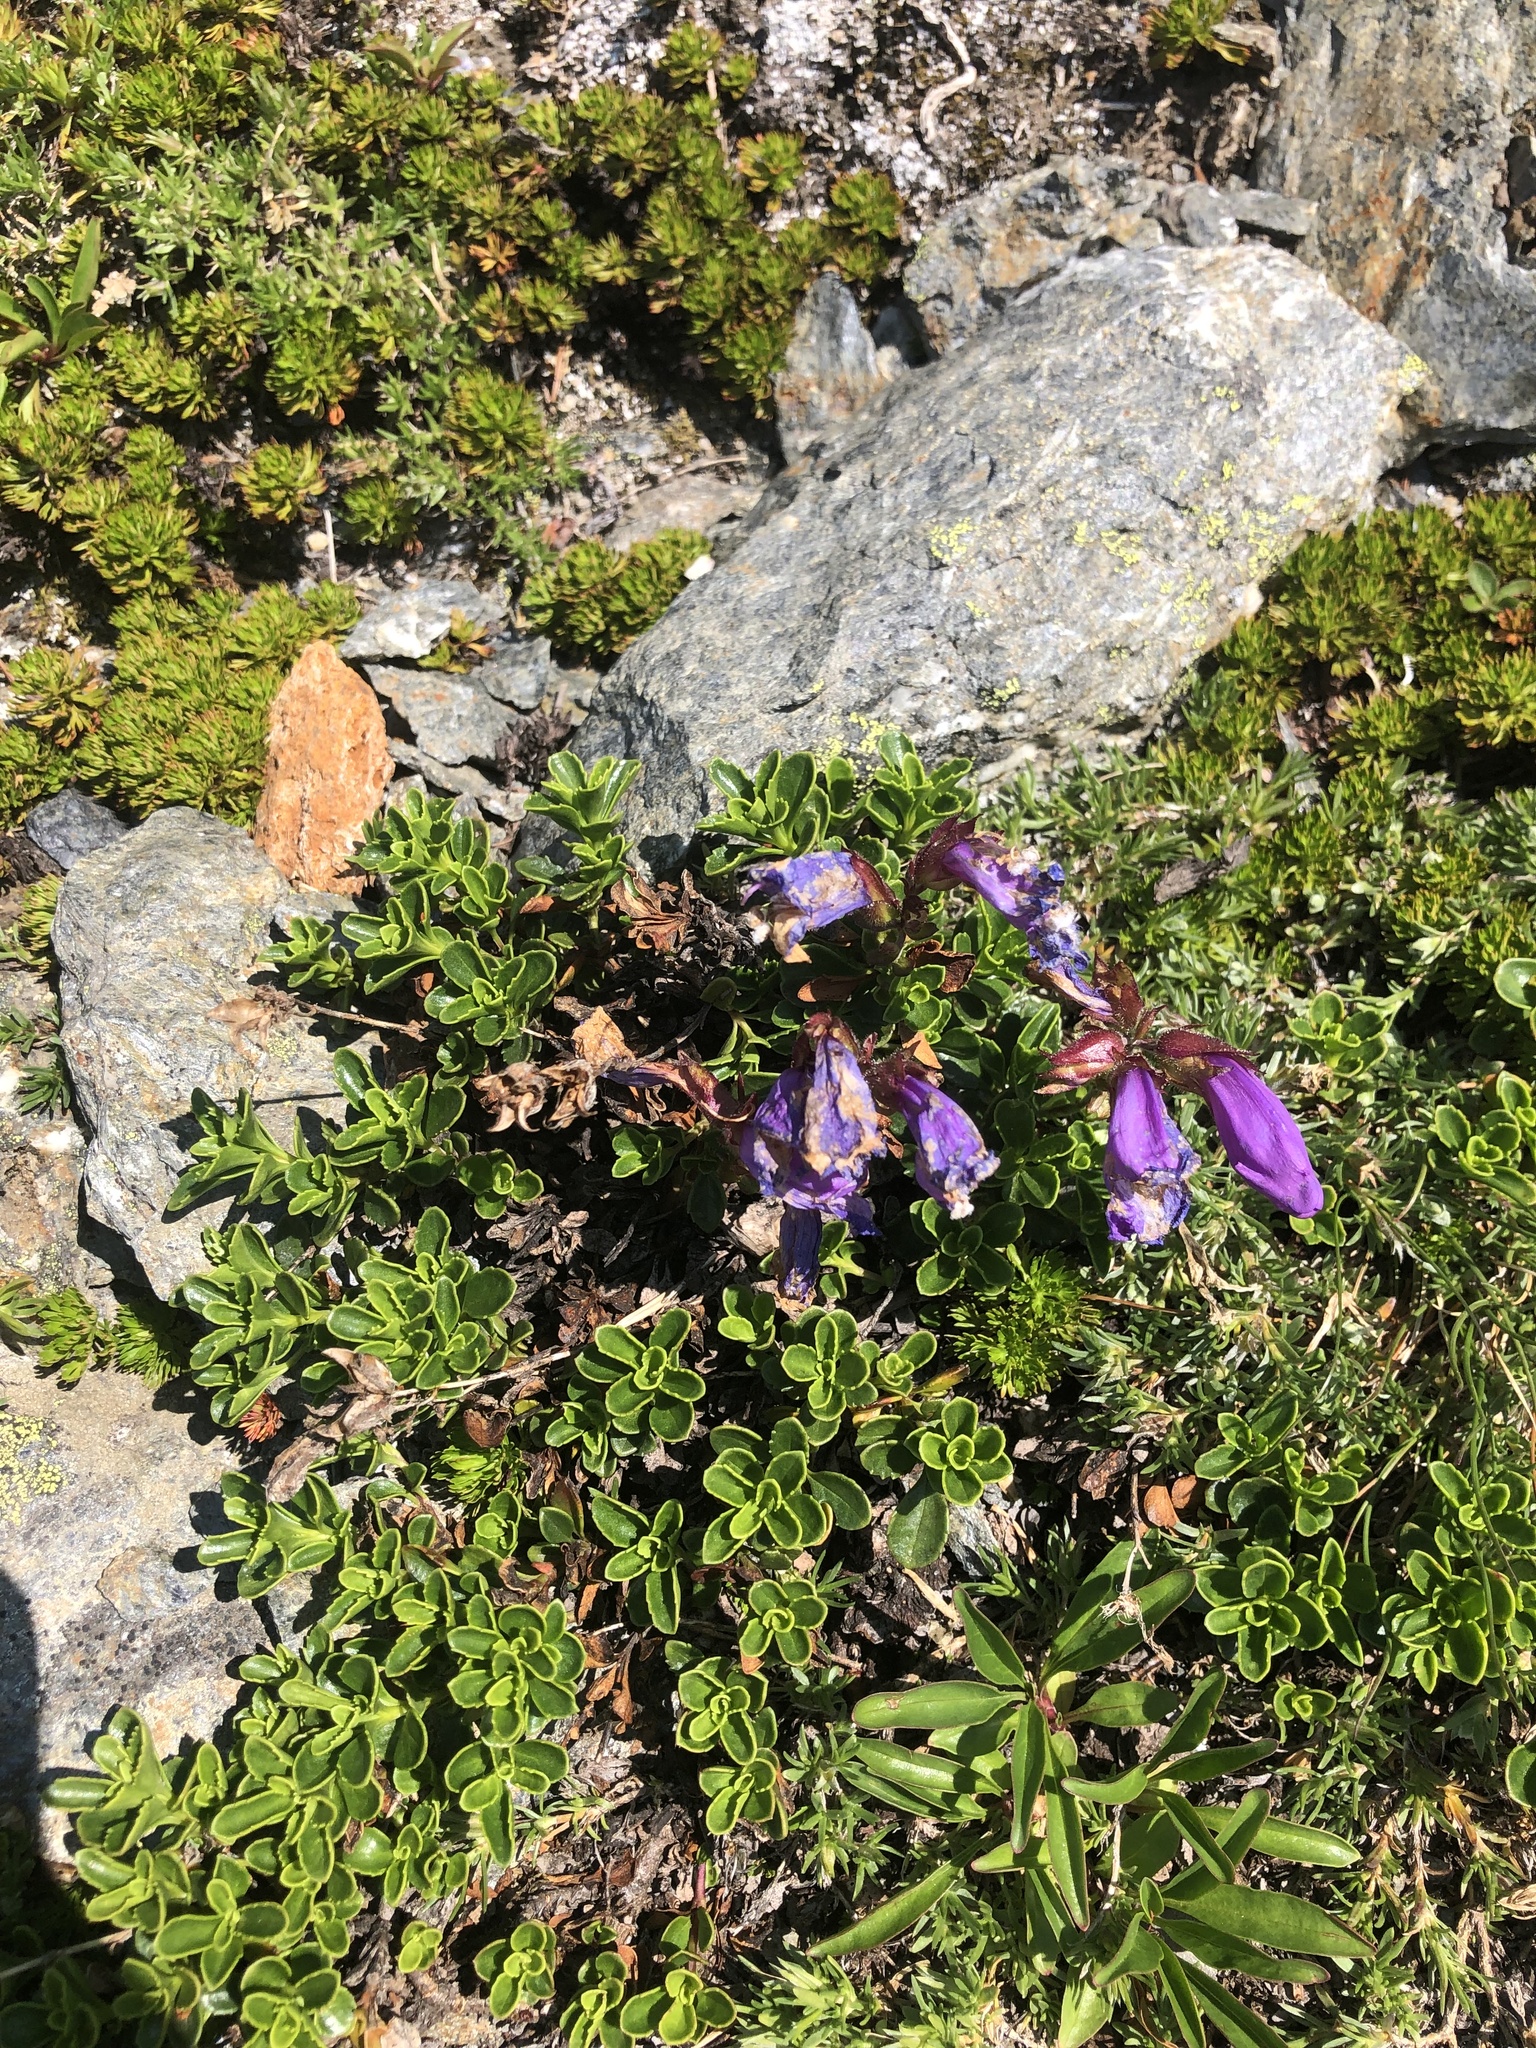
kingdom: Plantae
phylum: Tracheophyta
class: Magnoliopsida
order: Lamiales
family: Plantaginaceae
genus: Penstemon
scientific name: Penstemon davidsonii
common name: Davidson's penstemon
